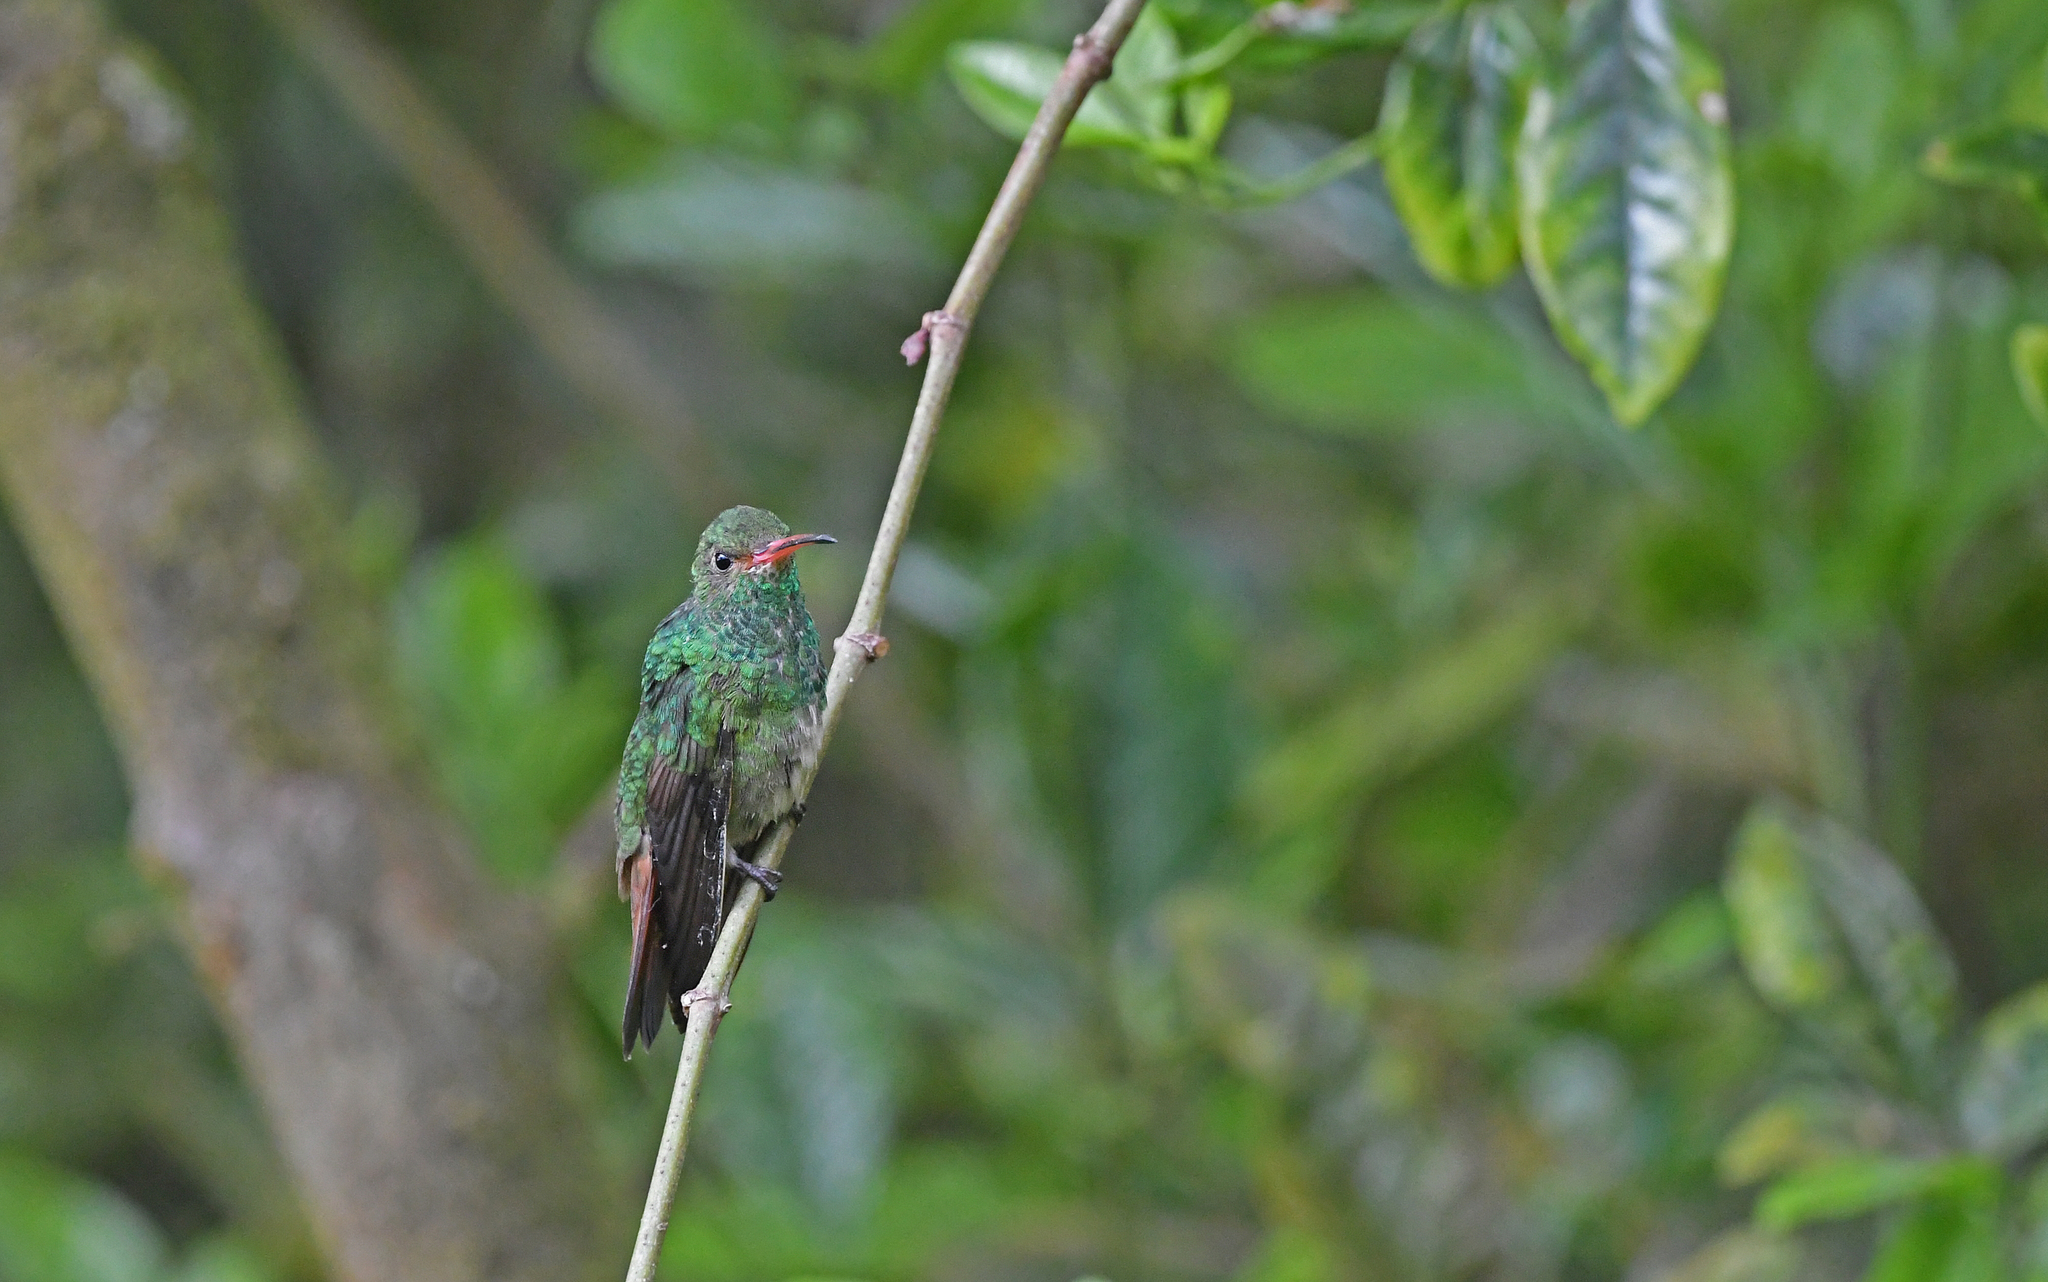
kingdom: Animalia
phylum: Chordata
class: Aves
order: Apodiformes
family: Trochilidae
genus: Amazilia
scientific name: Amazilia tzacatl
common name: Rufous-tailed hummingbird
